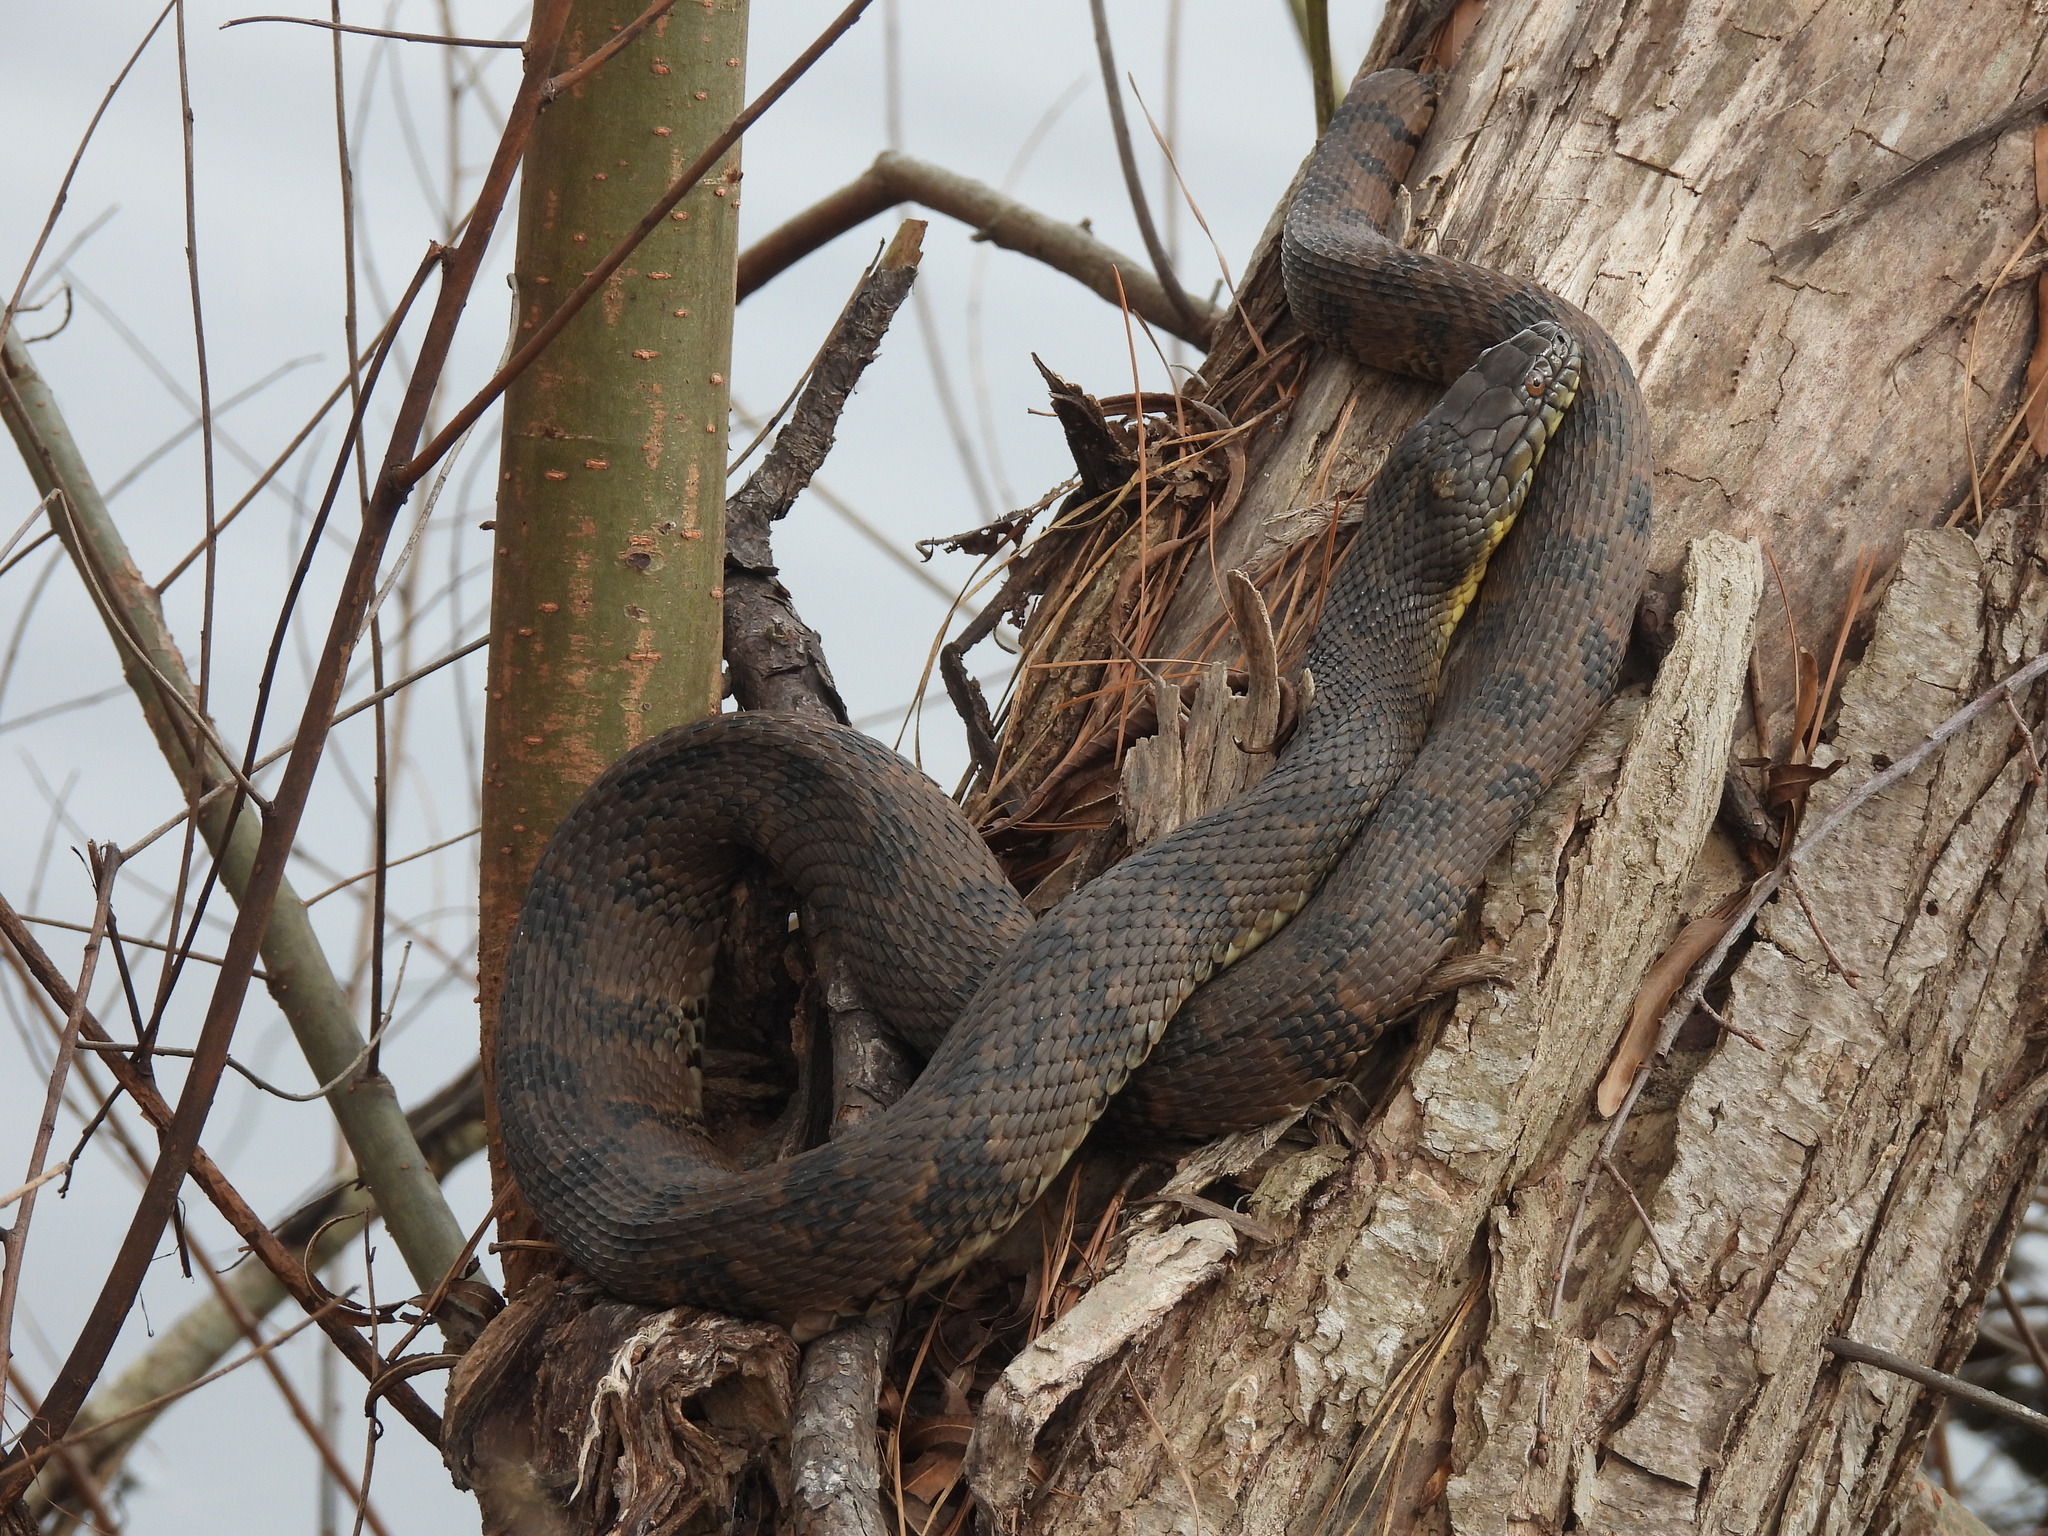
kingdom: Animalia
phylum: Chordata
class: Squamata
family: Colubridae
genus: Nerodia
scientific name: Nerodia rhombifer
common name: Diamondback water snake
